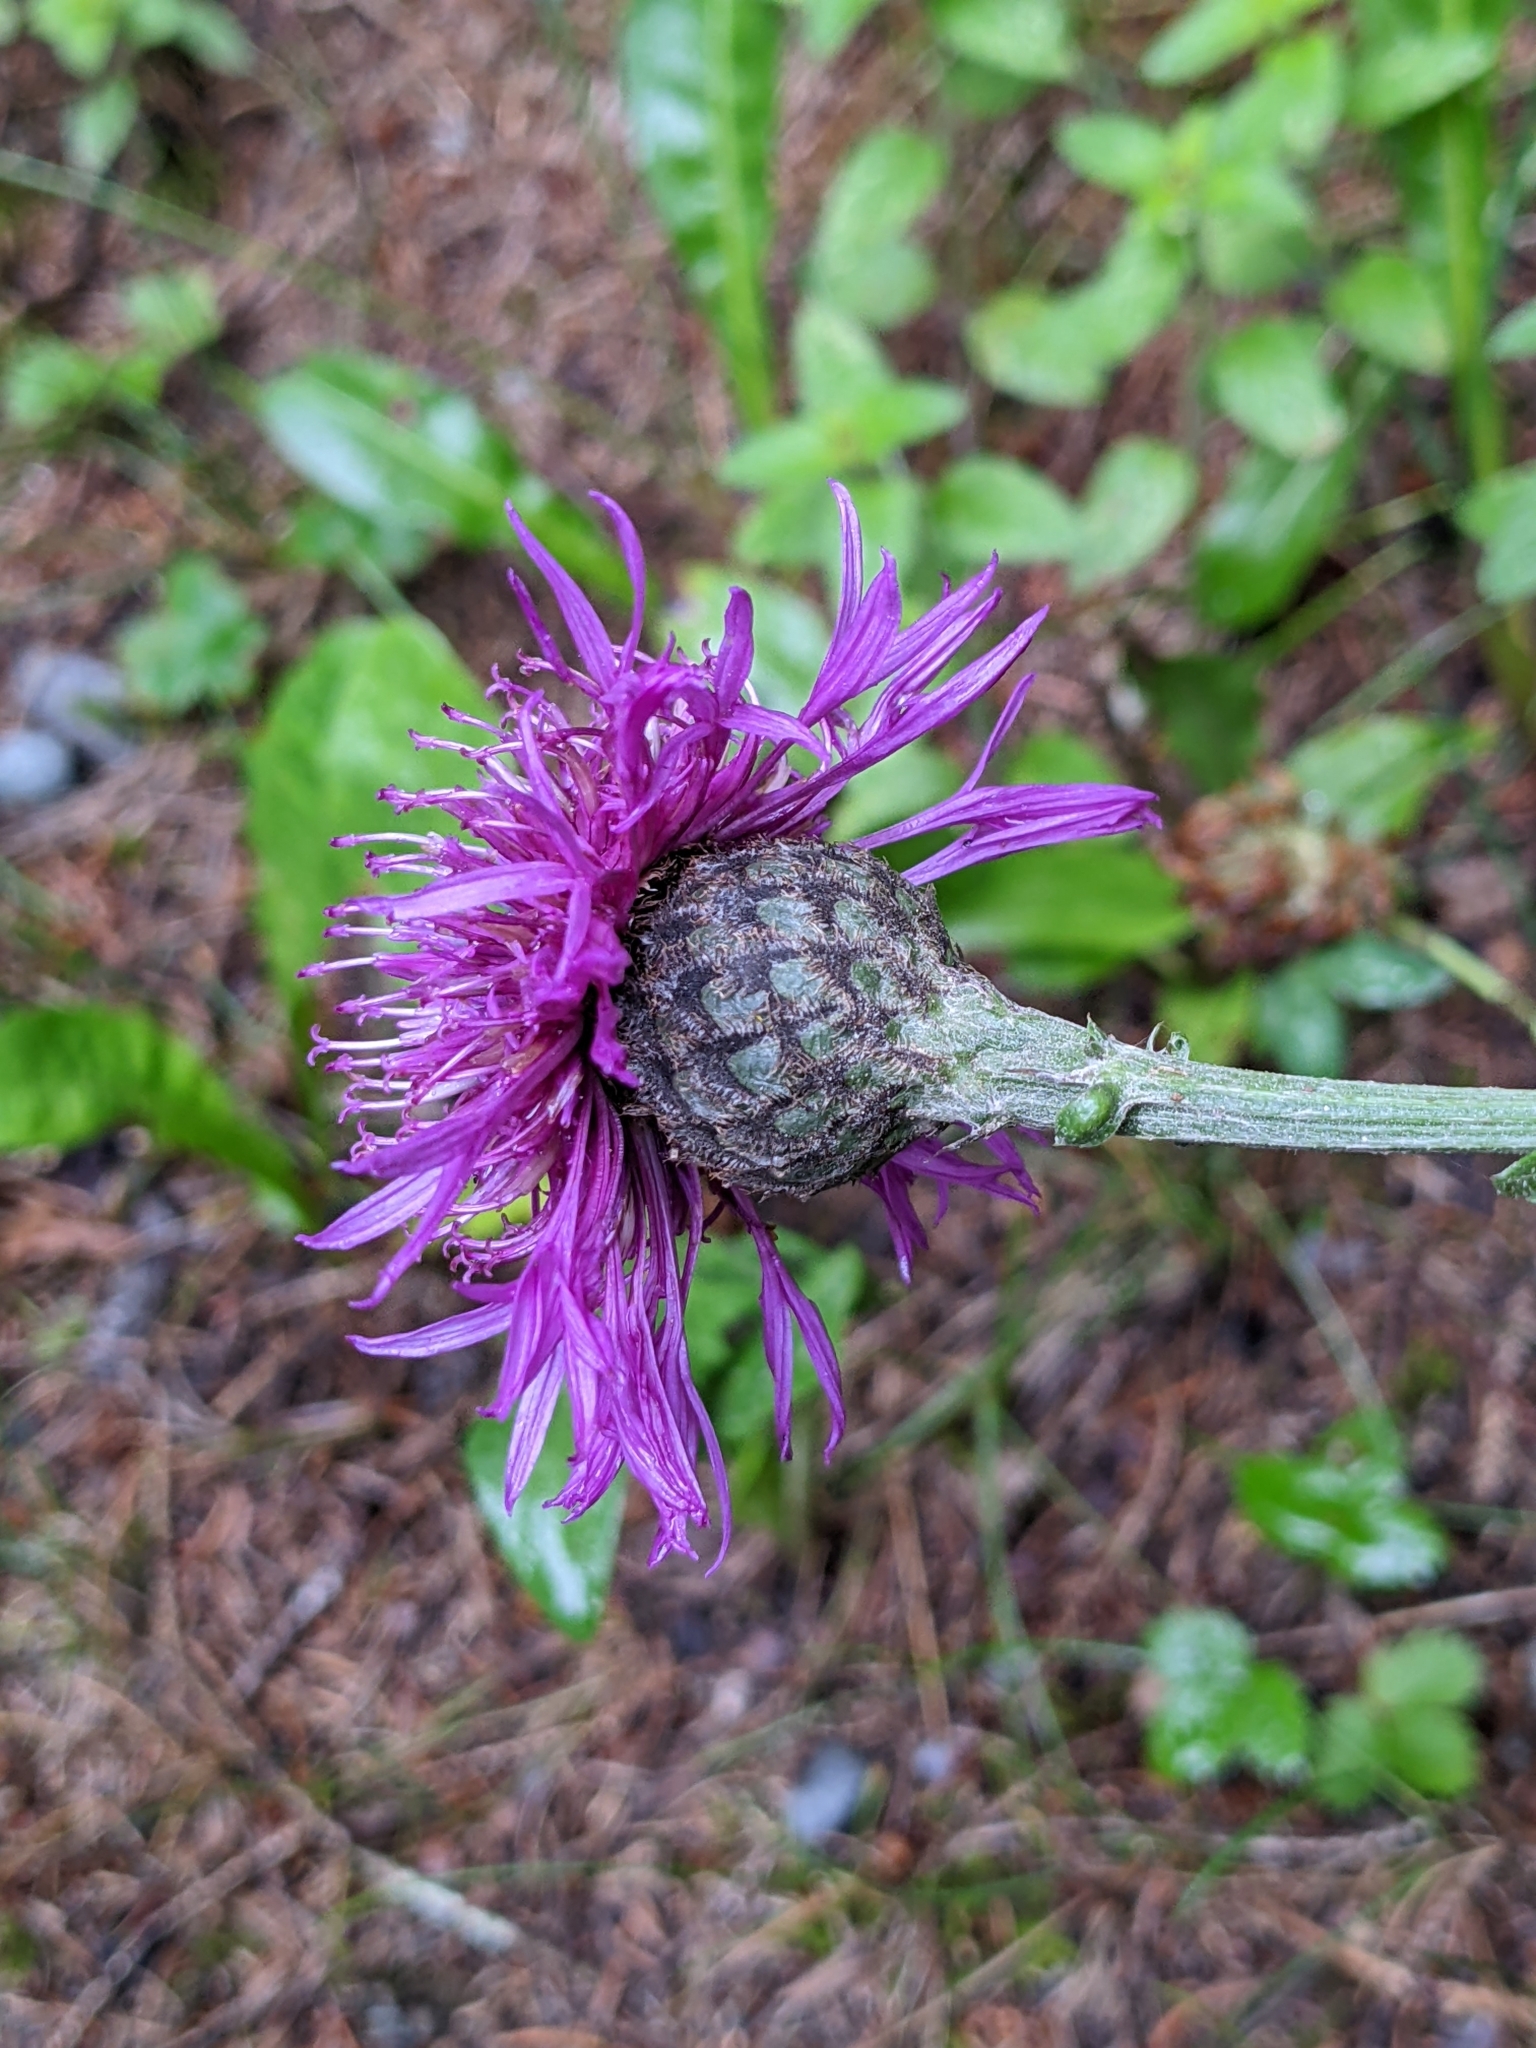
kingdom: Plantae
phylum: Tracheophyta
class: Magnoliopsida
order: Asterales
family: Asteraceae
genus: Centaurea
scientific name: Centaurea scabiosa
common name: Greater knapweed
